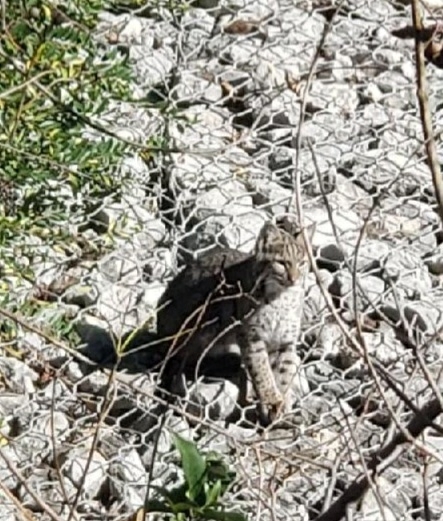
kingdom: Animalia
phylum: Chordata
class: Mammalia
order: Carnivora
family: Felidae
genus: Lynx
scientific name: Lynx rufus
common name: Bobcat
